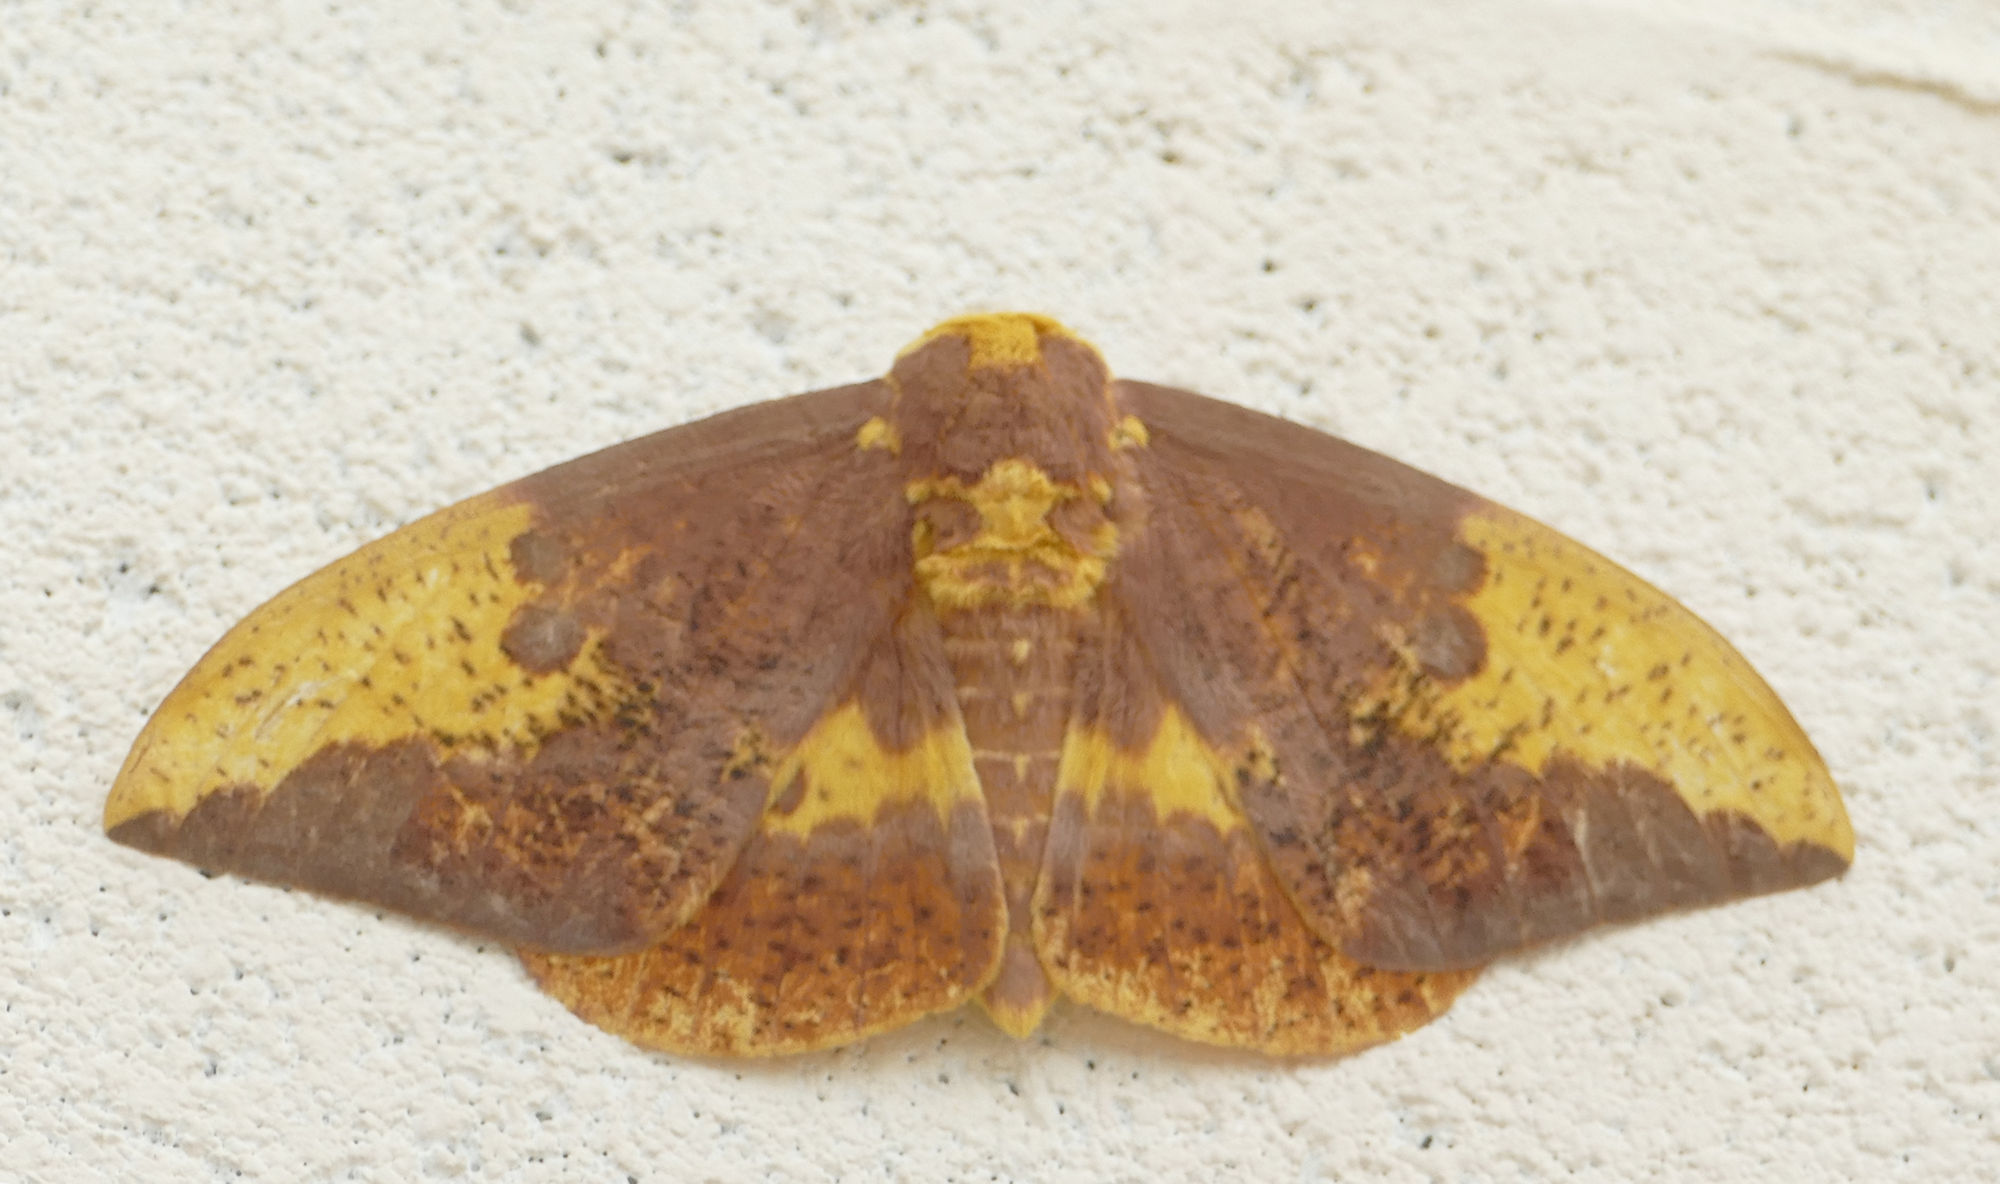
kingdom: Animalia
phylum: Arthropoda
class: Insecta
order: Lepidoptera
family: Saturniidae
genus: Eacles
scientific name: Eacles imperialis
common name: Imperial moth
